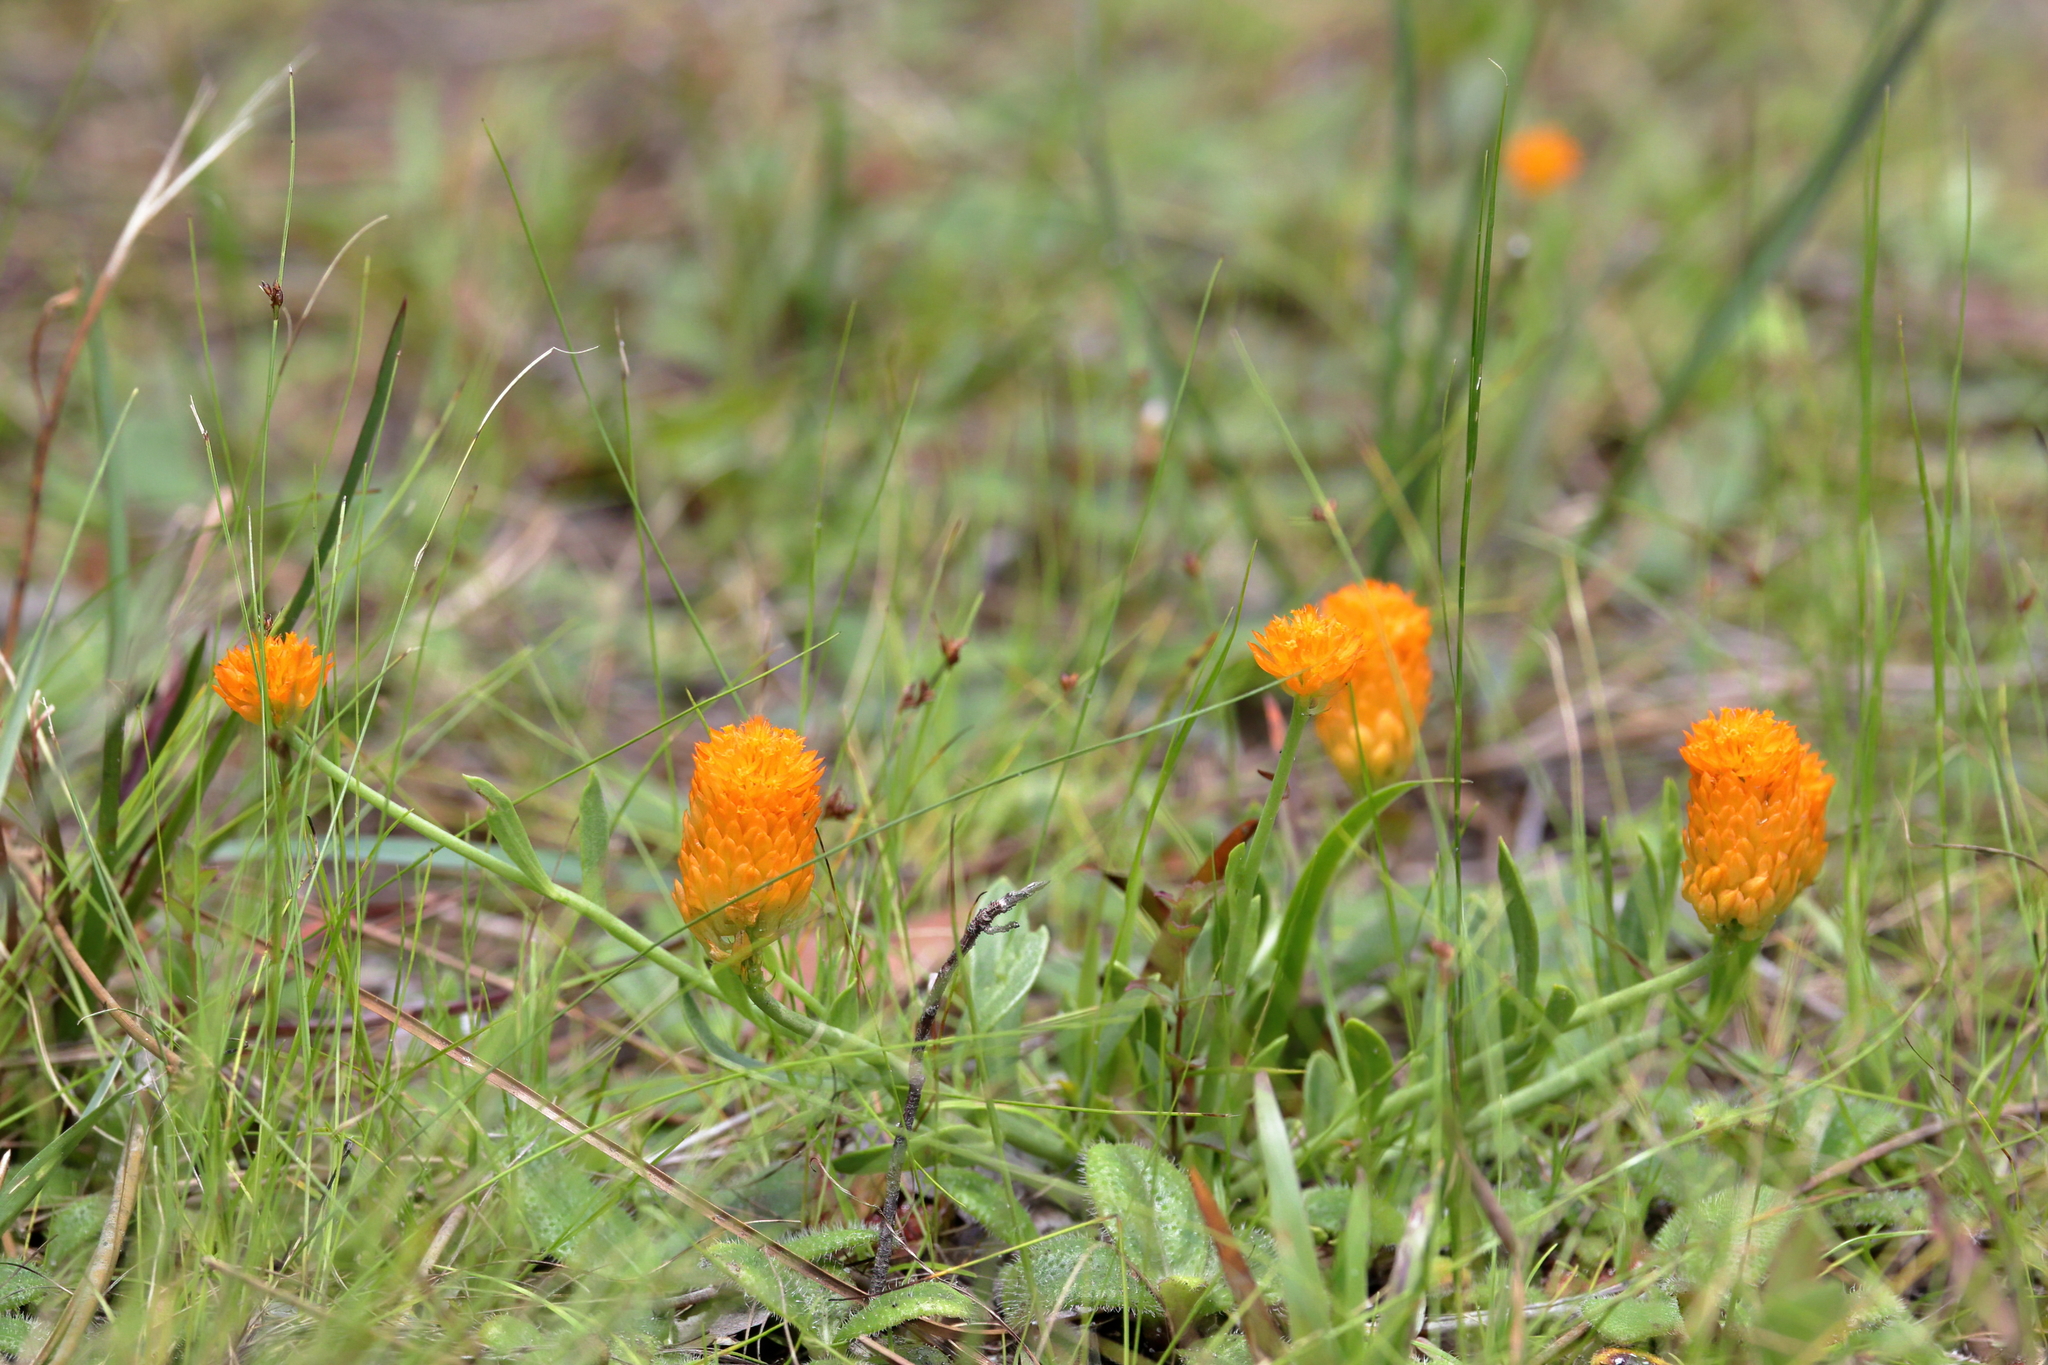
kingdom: Plantae
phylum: Tracheophyta
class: Magnoliopsida
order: Fabales
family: Polygalaceae
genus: Polygala
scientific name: Polygala lutea
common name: Orange milkwort
